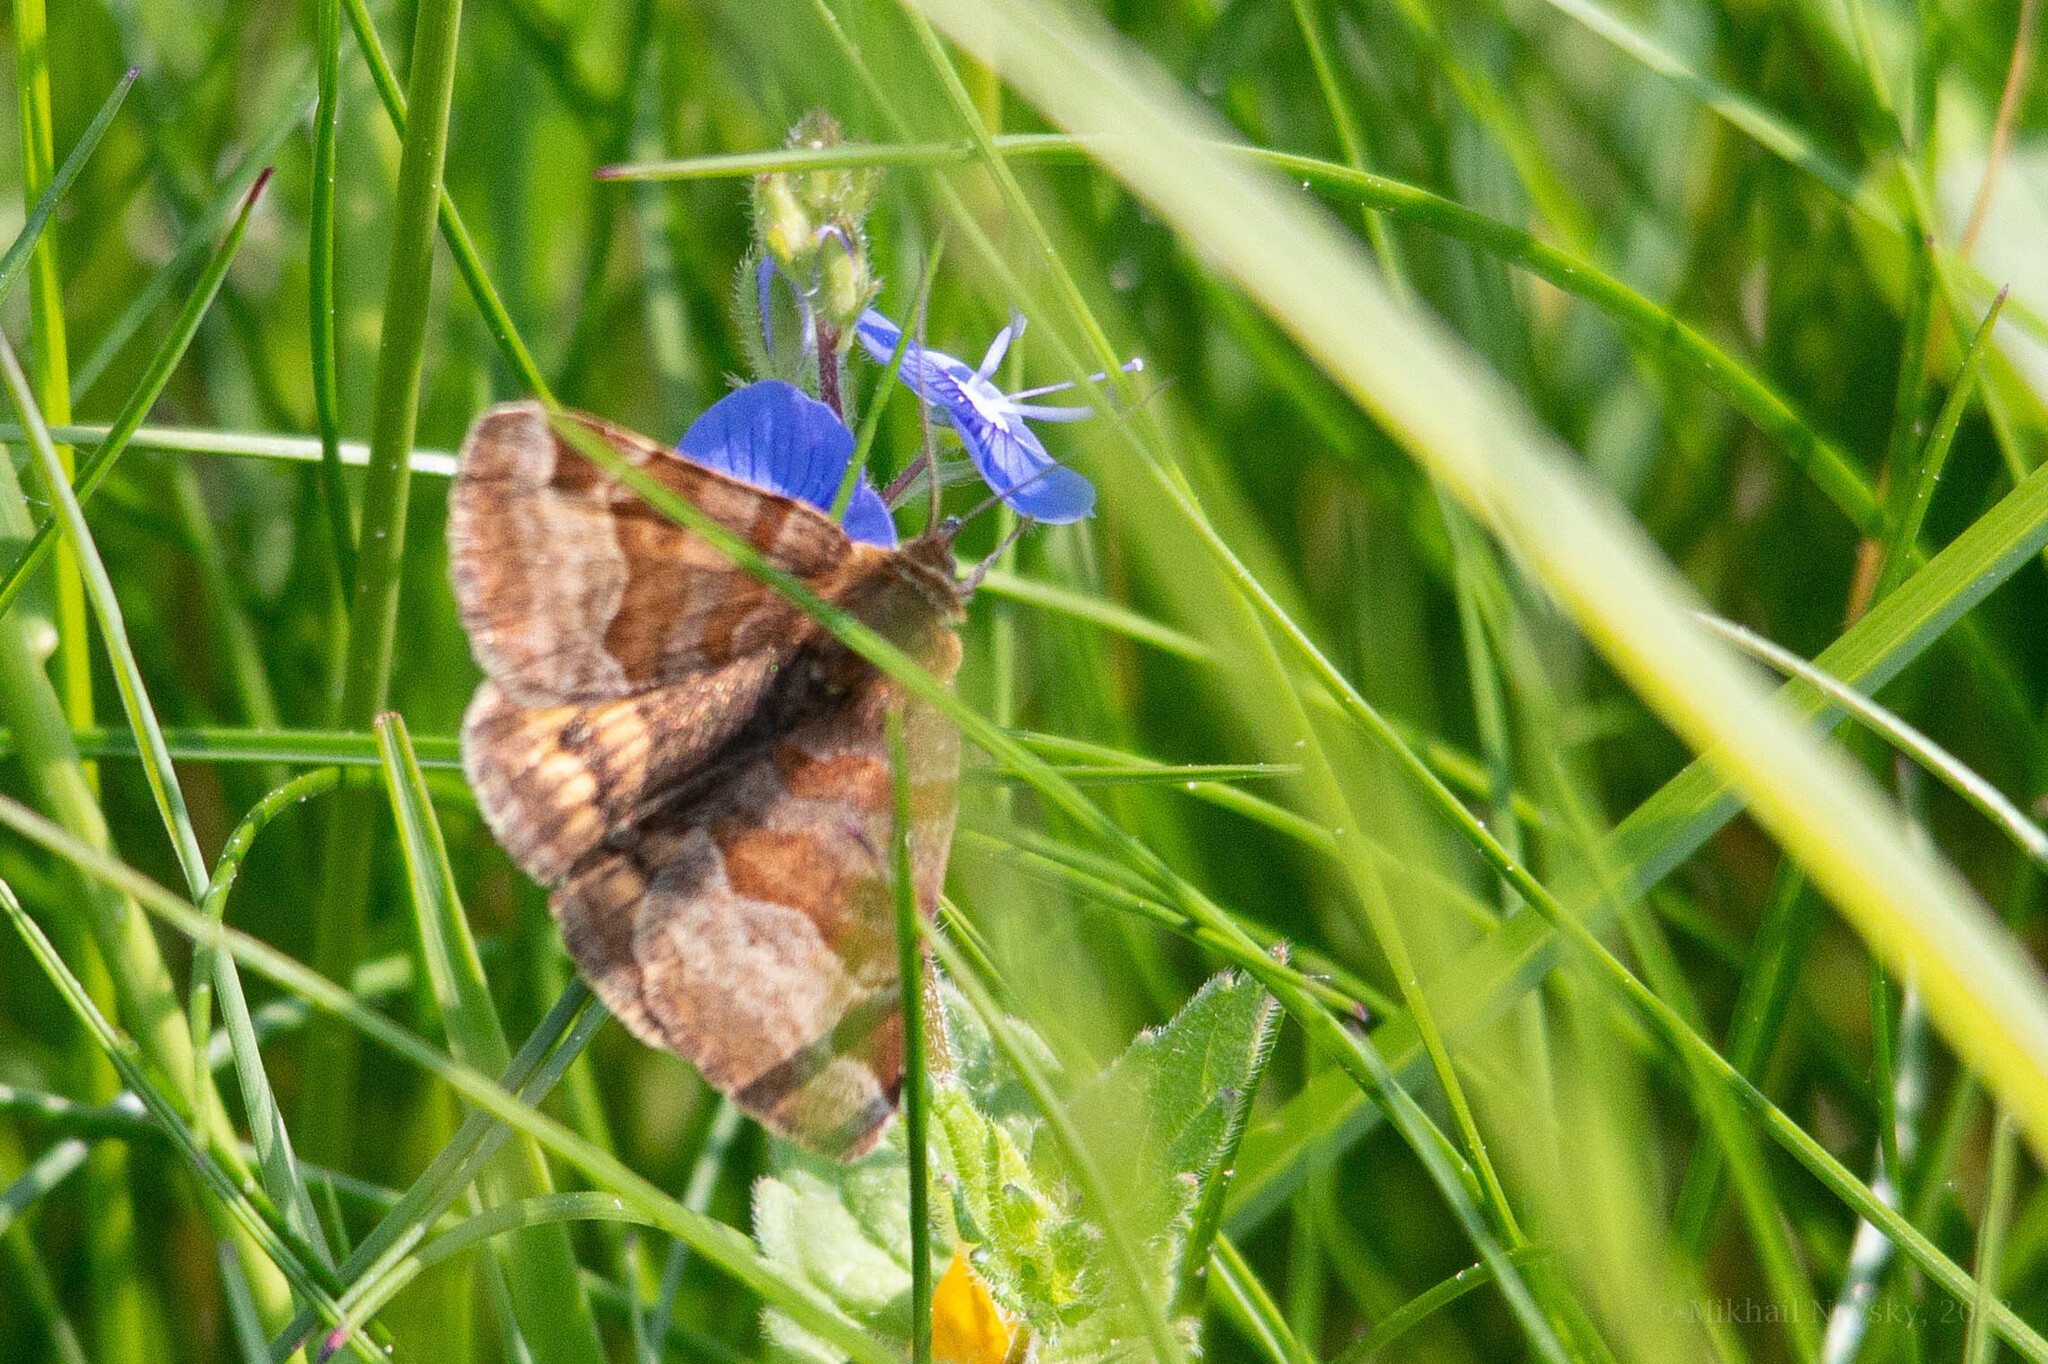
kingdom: Animalia
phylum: Arthropoda
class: Insecta
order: Lepidoptera
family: Erebidae
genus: Euclidia
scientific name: Euclidia glyphica
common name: Burnet companion
